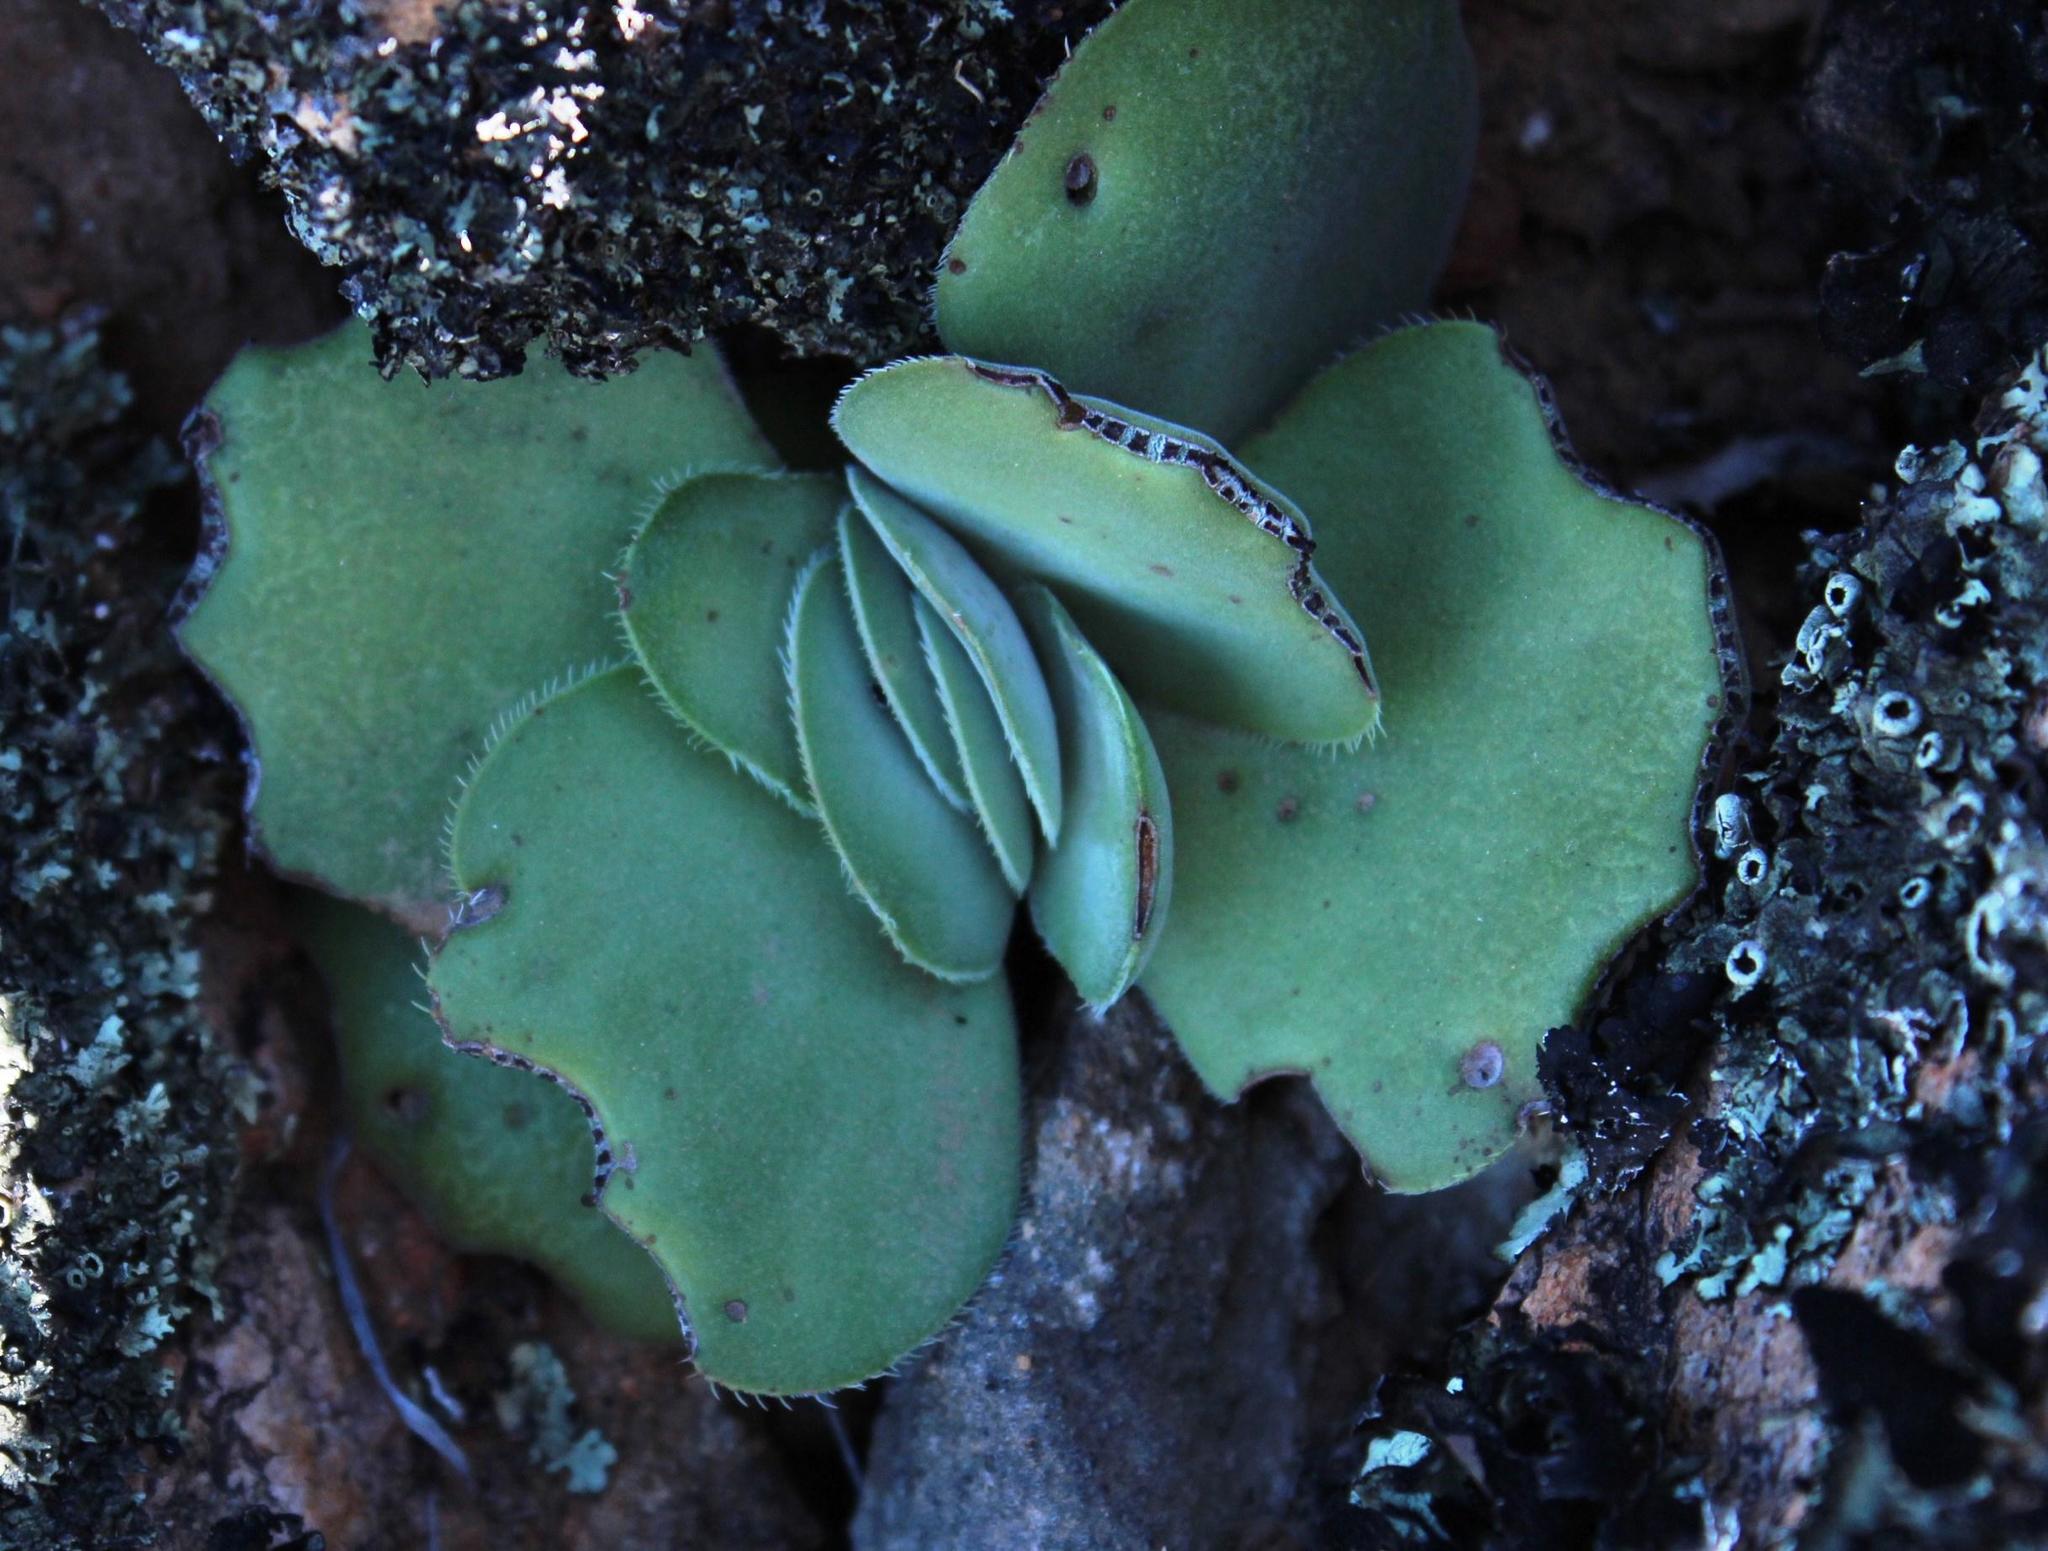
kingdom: Plantae
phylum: Tracheophyta
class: Magnoliopsida
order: Saxifragales
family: Crassulaceae
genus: Crassula
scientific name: Crassula tomentosa
